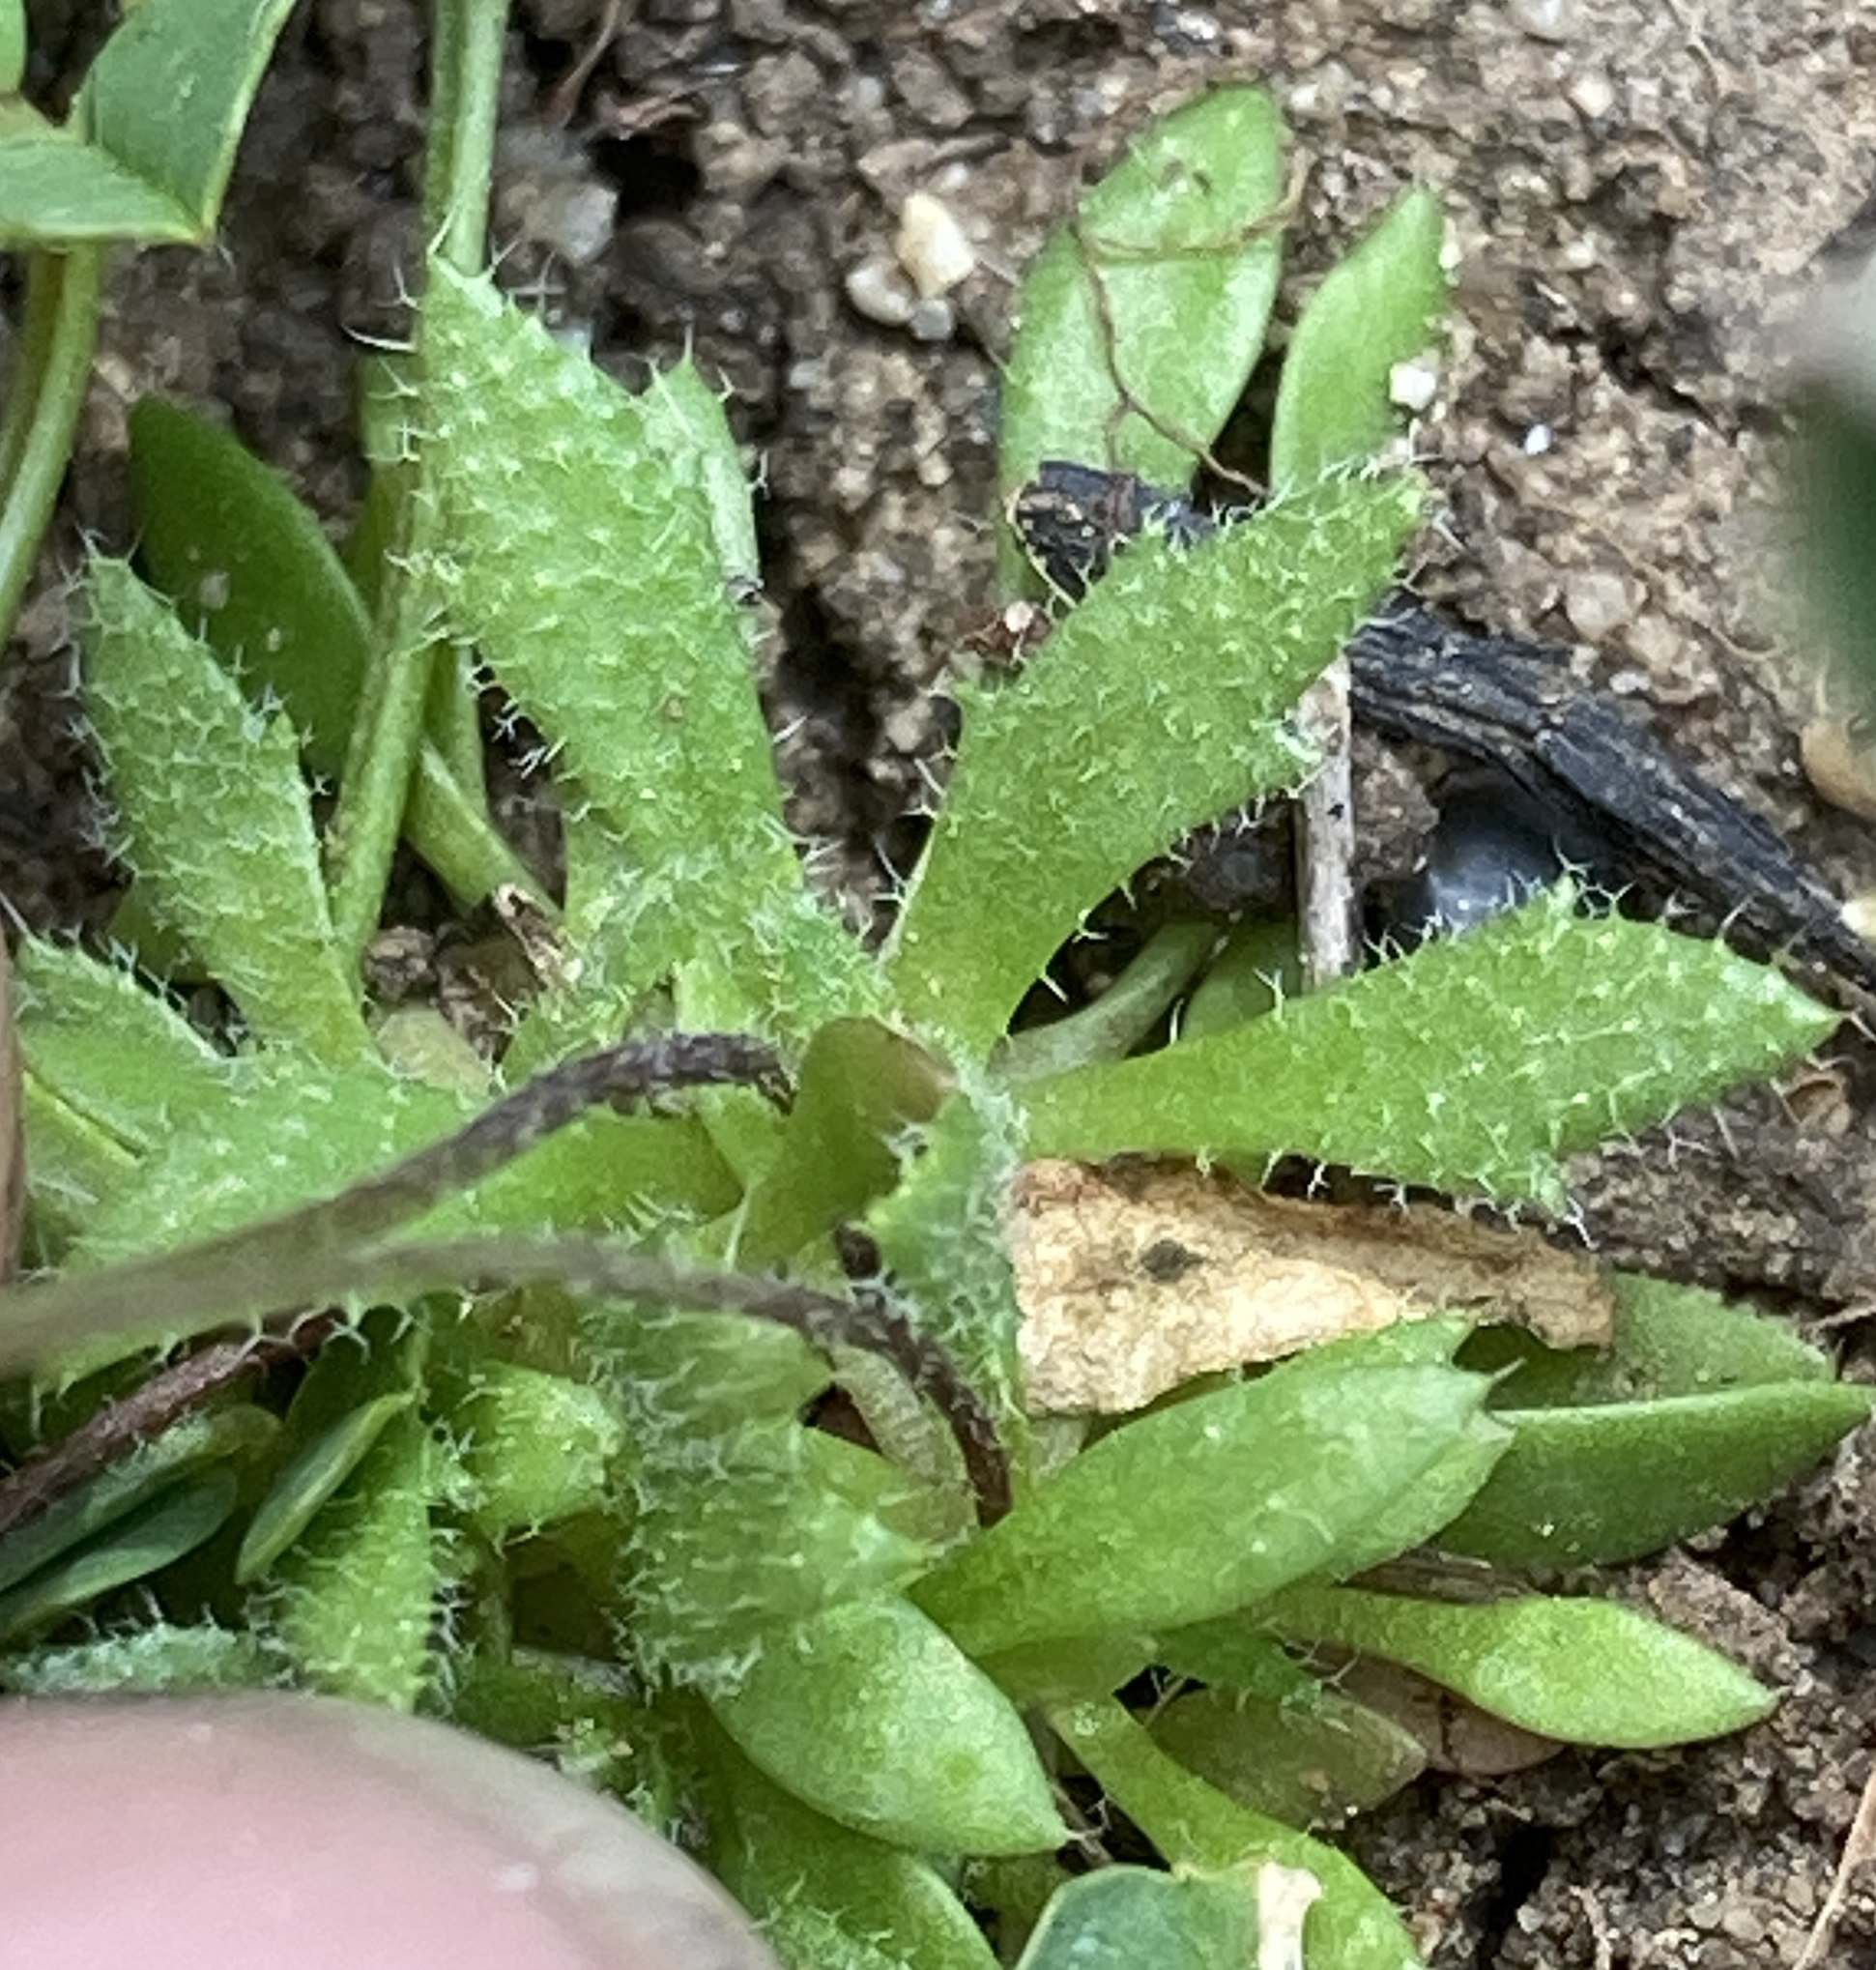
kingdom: Plantae
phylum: Tracheophyta
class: Magnoliopsida
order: Brassicales
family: Brassicaceae
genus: Draba
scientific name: Draba verna
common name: Spring draba
